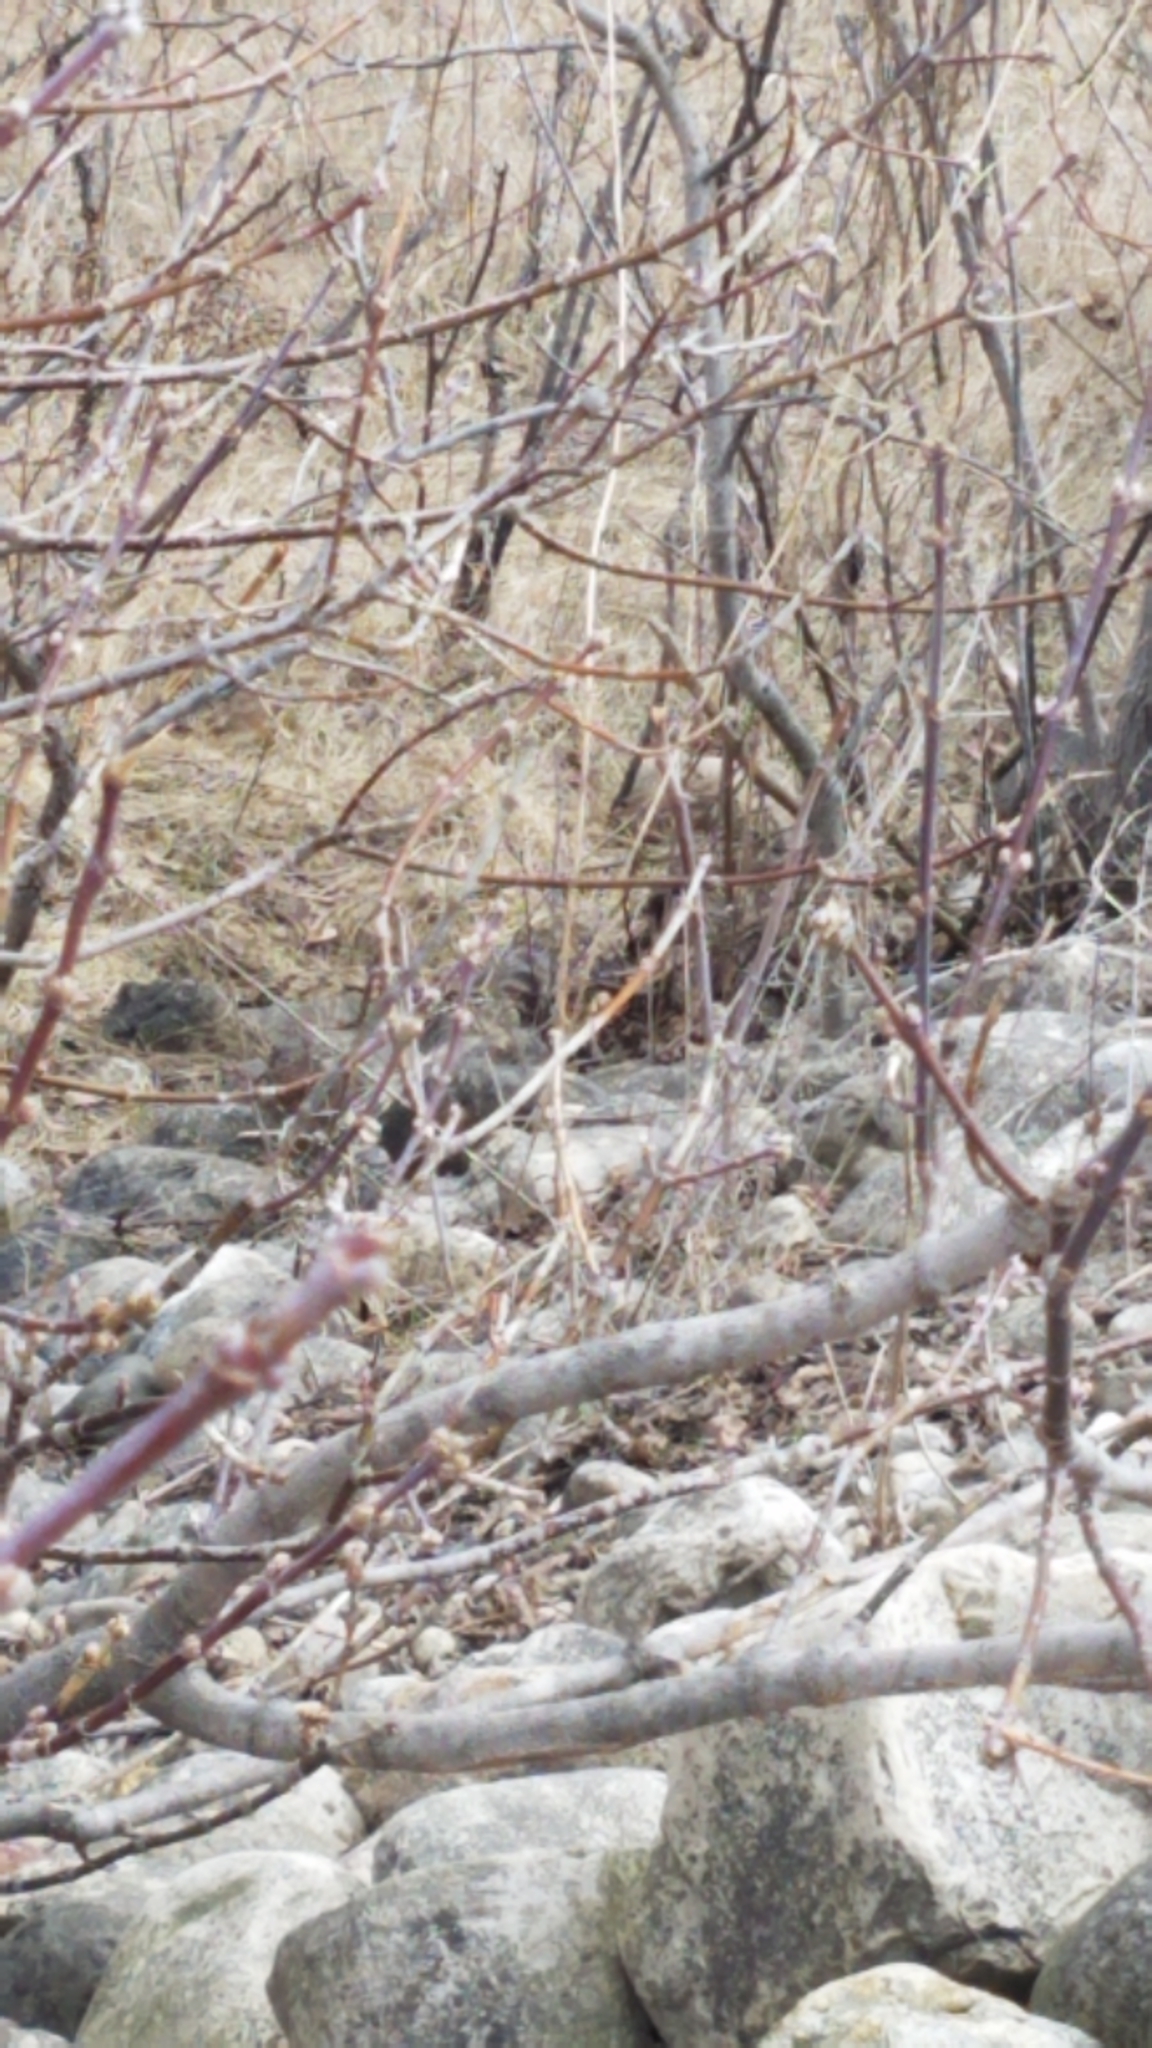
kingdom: Animalia
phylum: Chordata
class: Aves
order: Passeriformes
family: Passerellidae
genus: Melospiza
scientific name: Melospiza melodia
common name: Song sparrow
